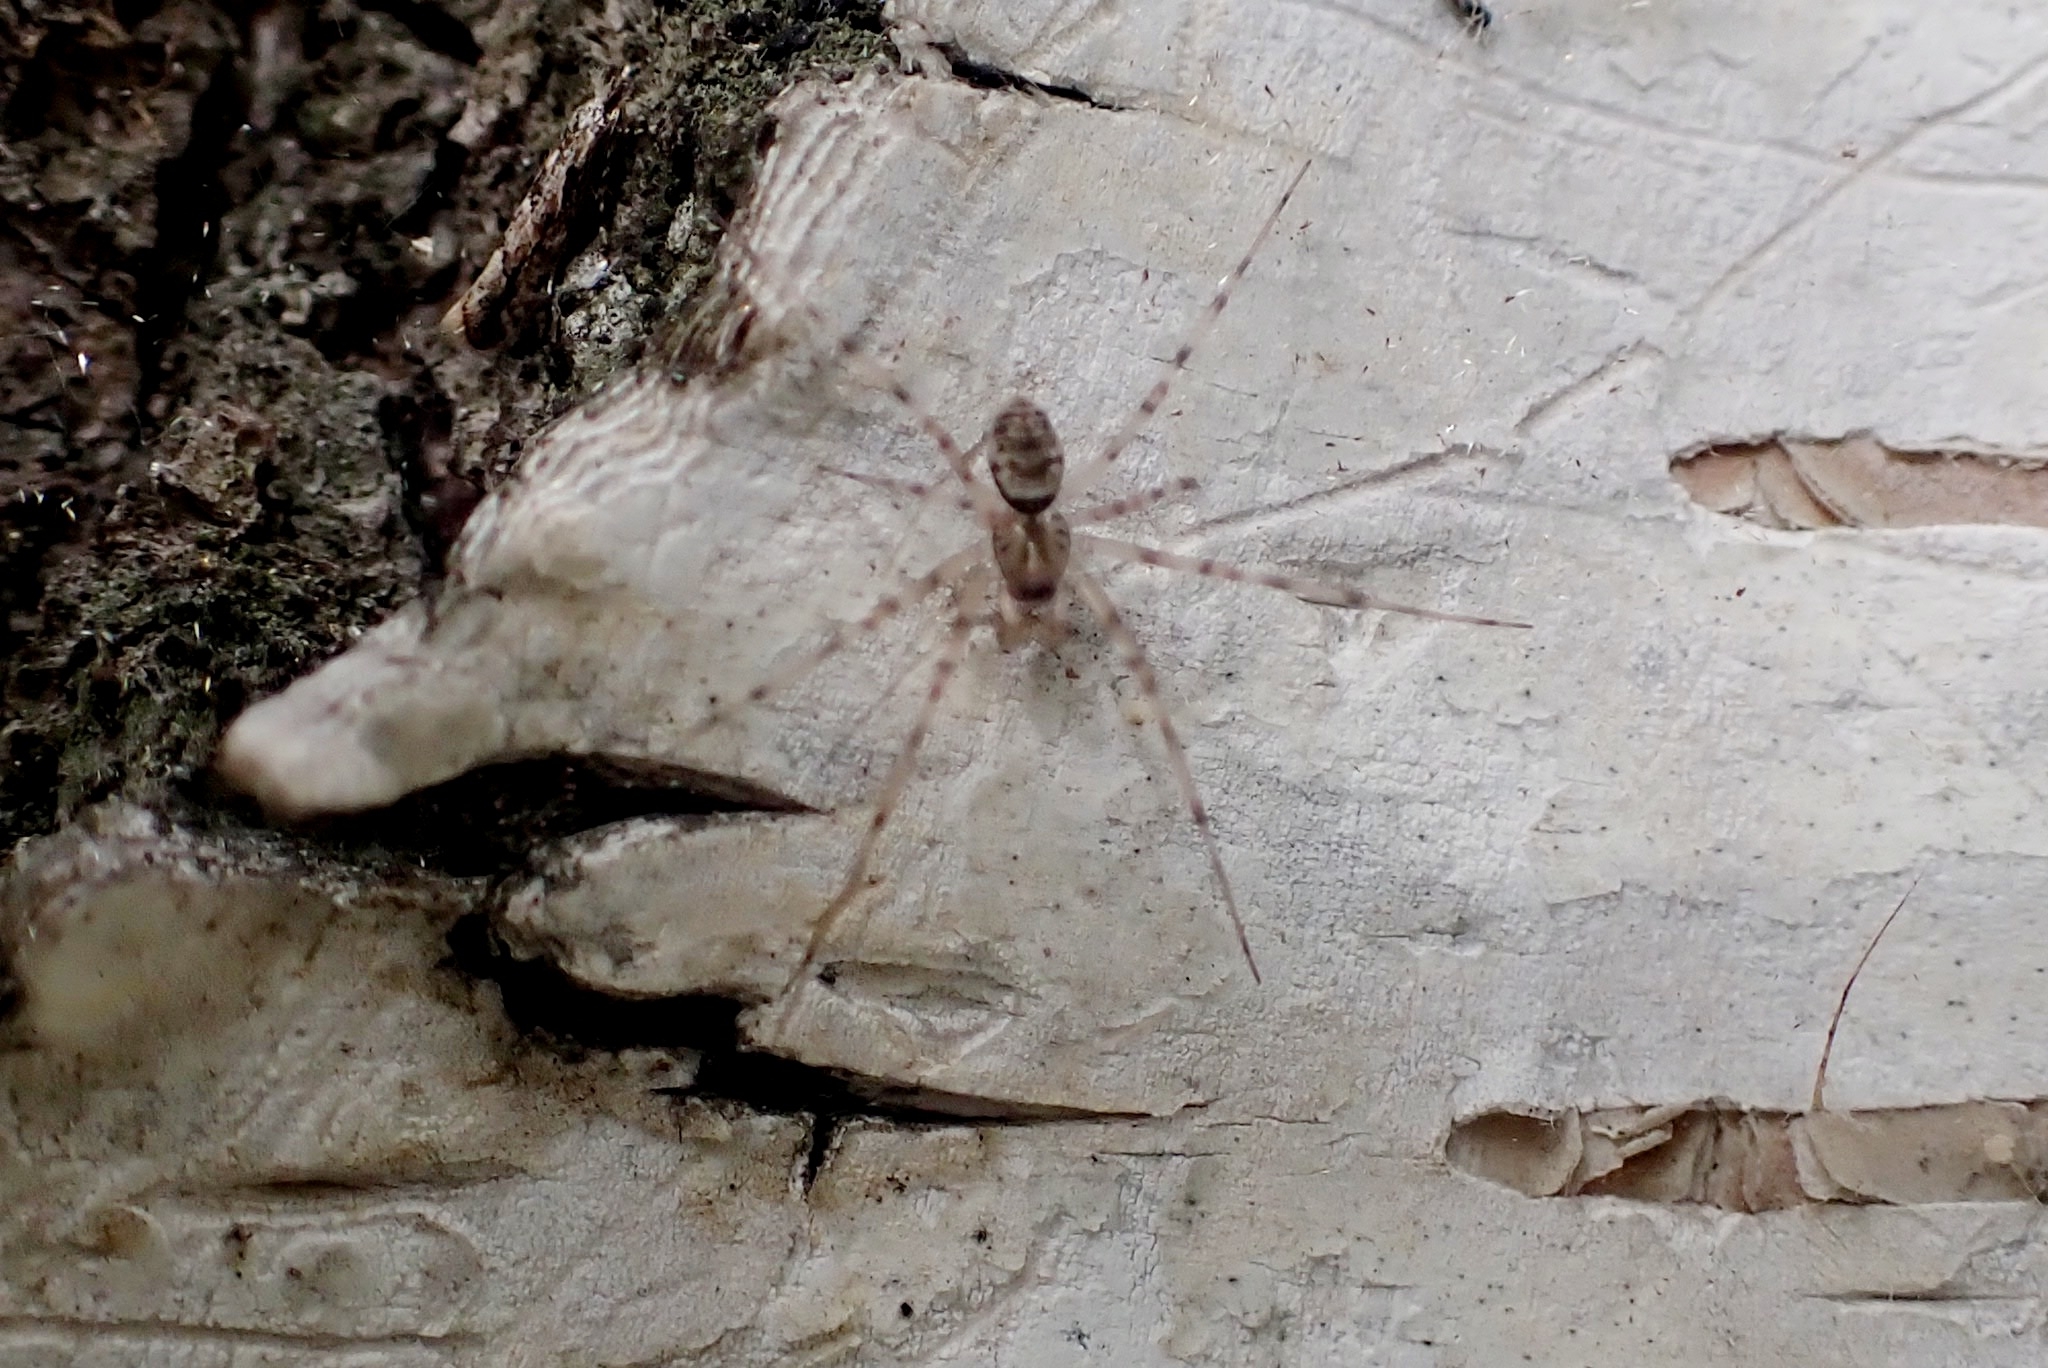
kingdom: Animalia
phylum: Arthropoda
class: Arachnida
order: Araneae
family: Linyphiidae
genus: Drapetisca
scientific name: Drapetisca socialis
